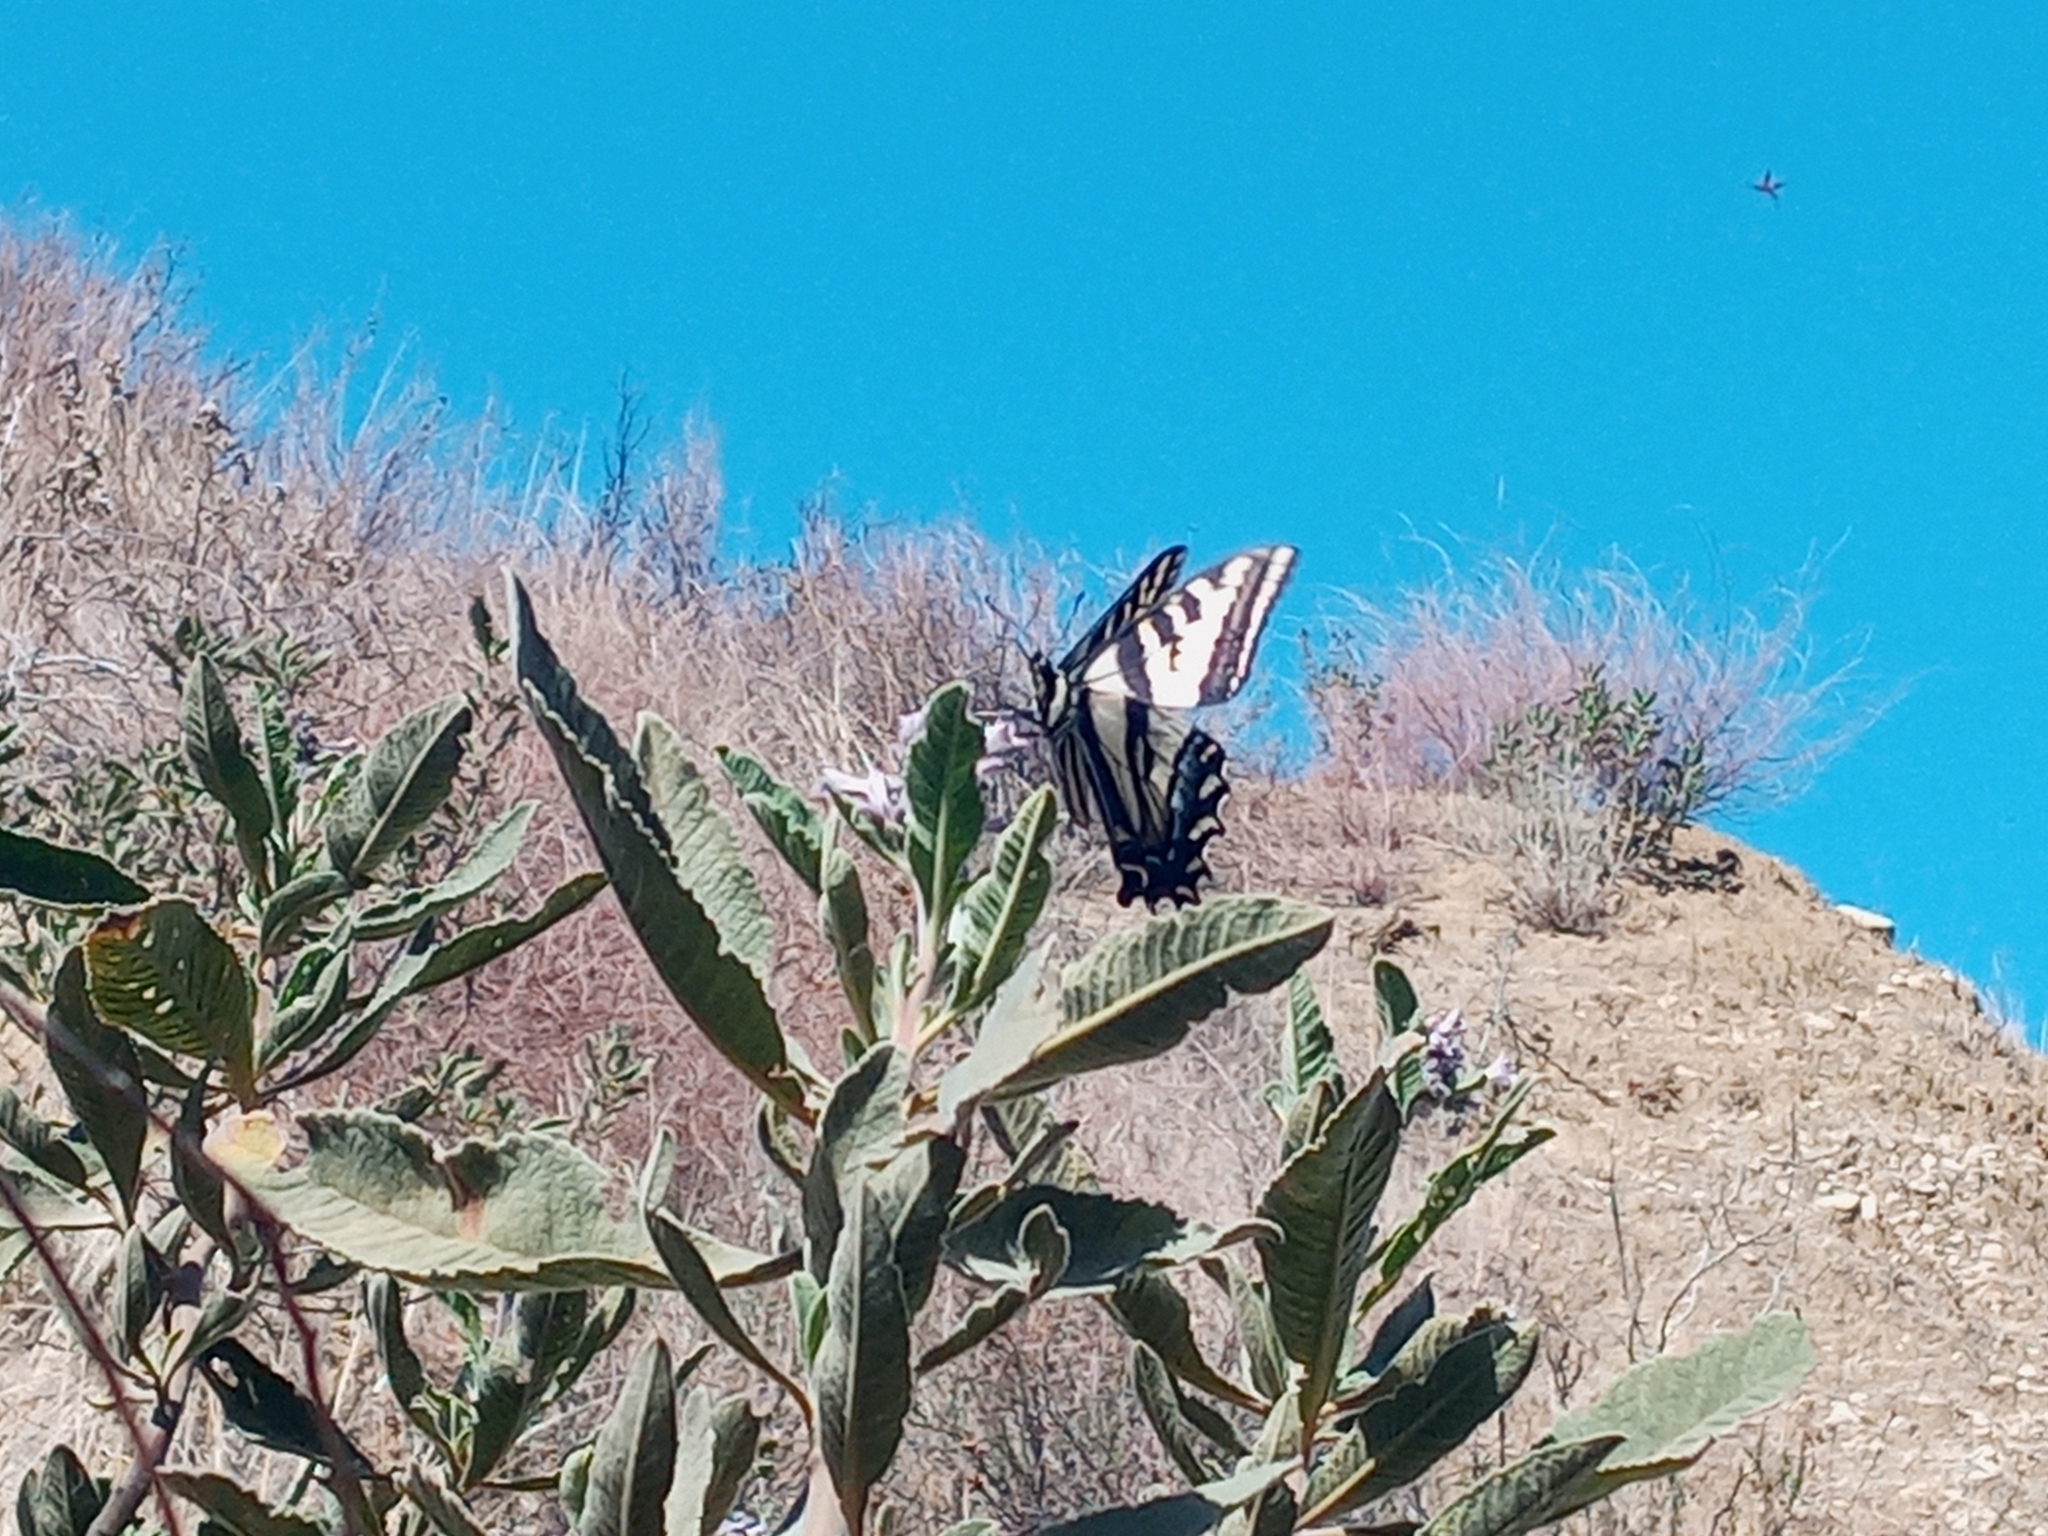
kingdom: Animalia
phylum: Arthropoda
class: Insecta
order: Lepidoptera
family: Papilionidae
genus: Papilio
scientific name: Papilio rutulus
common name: Western tiger swallowtail
